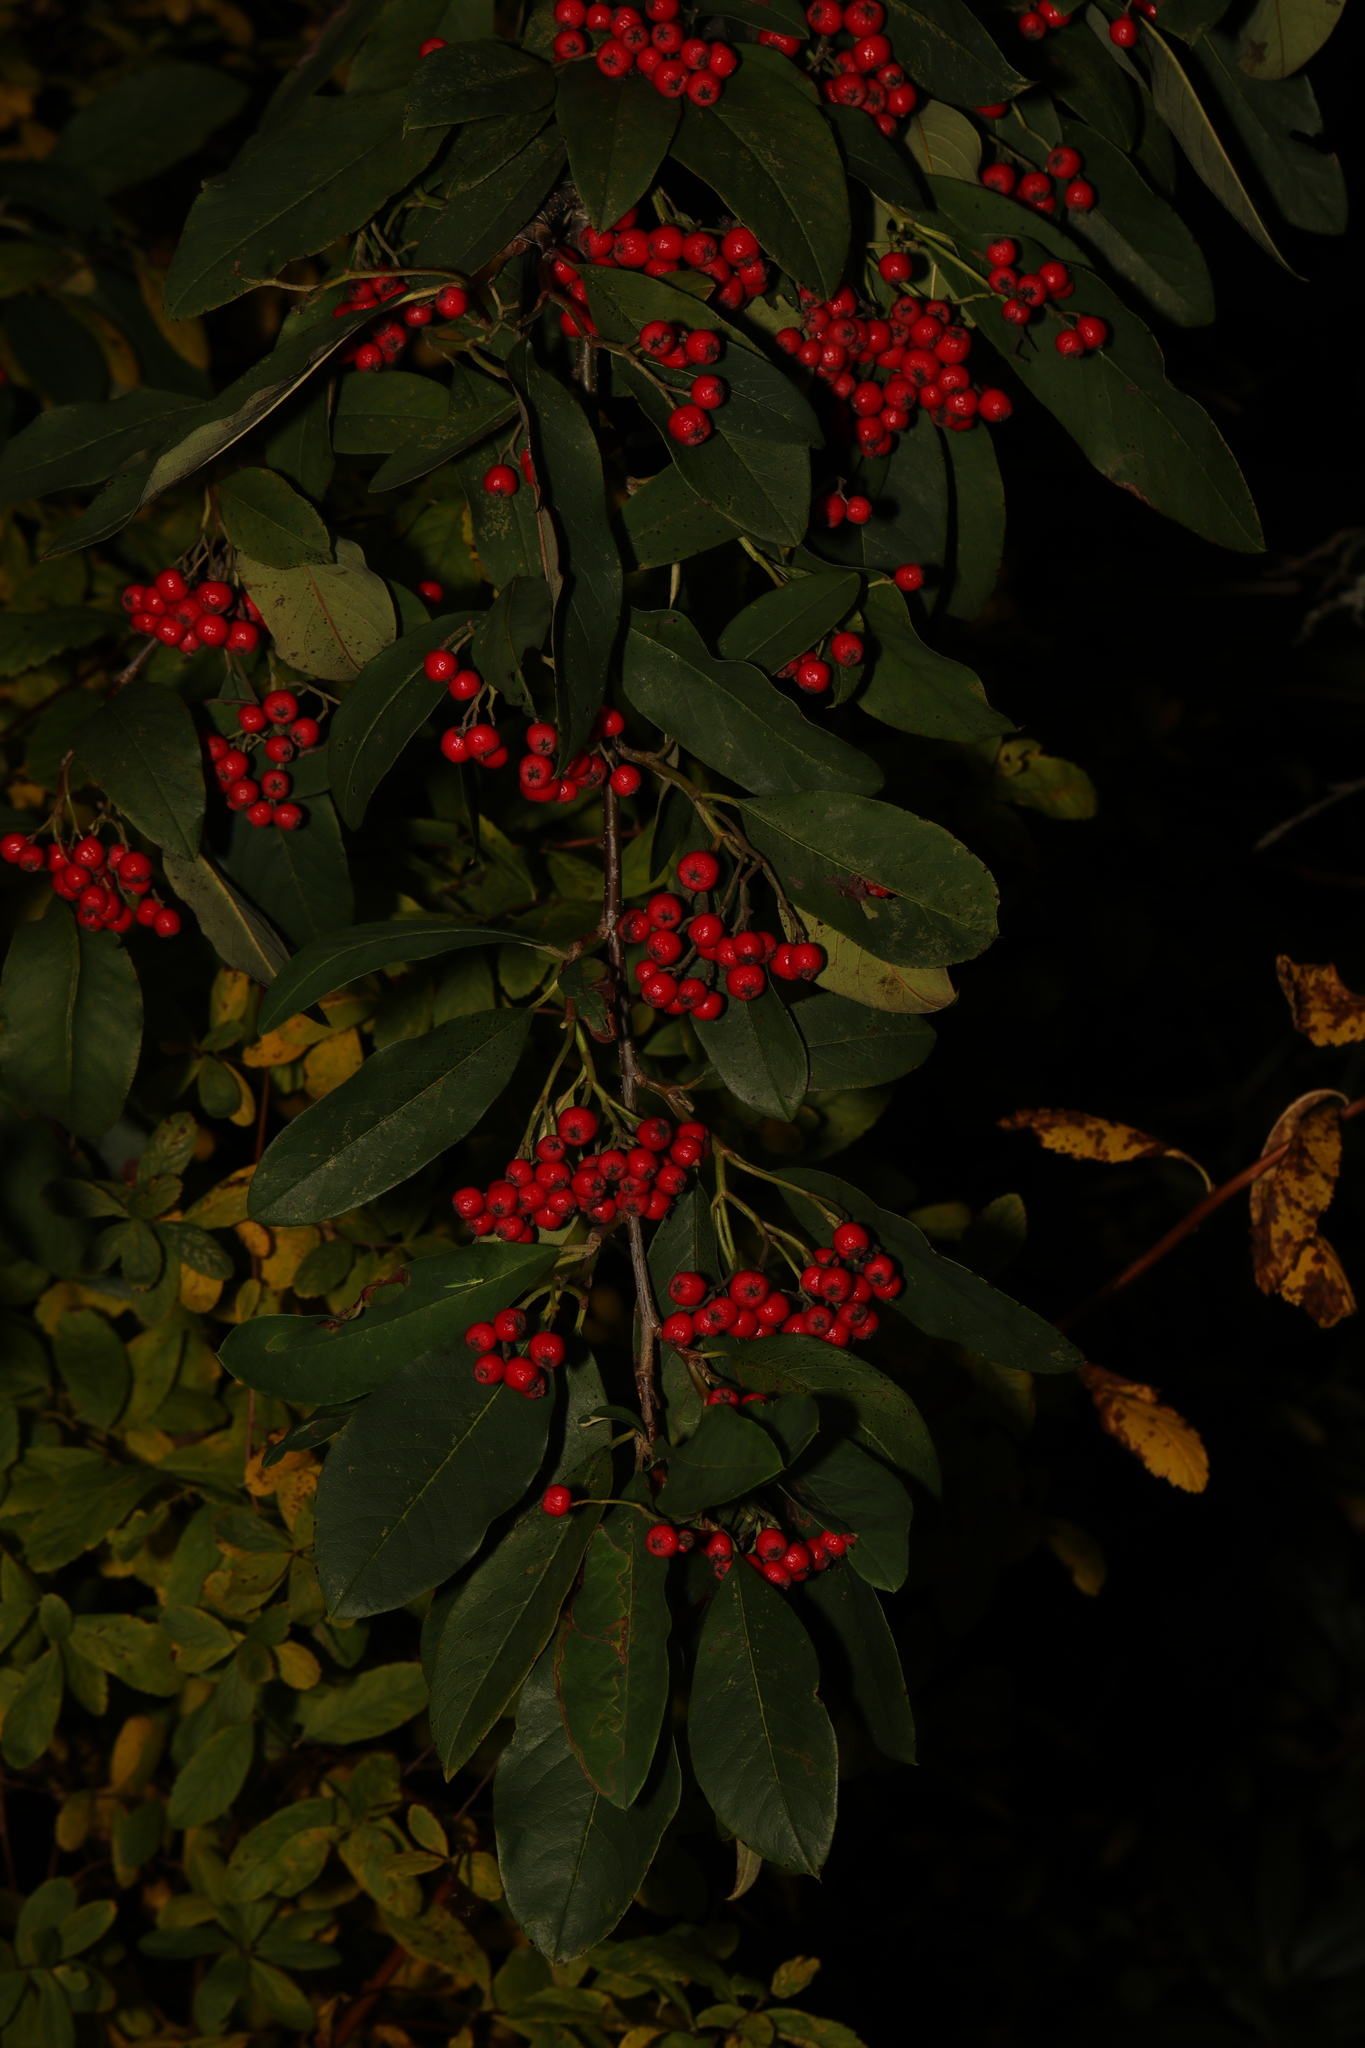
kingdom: Plantae
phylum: Tracheophyta
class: Magnoliopsida
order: Rosales
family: Rosaceae
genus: Stranvaesia
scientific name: Stranvaesia davidiana
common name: Chinese photinia
